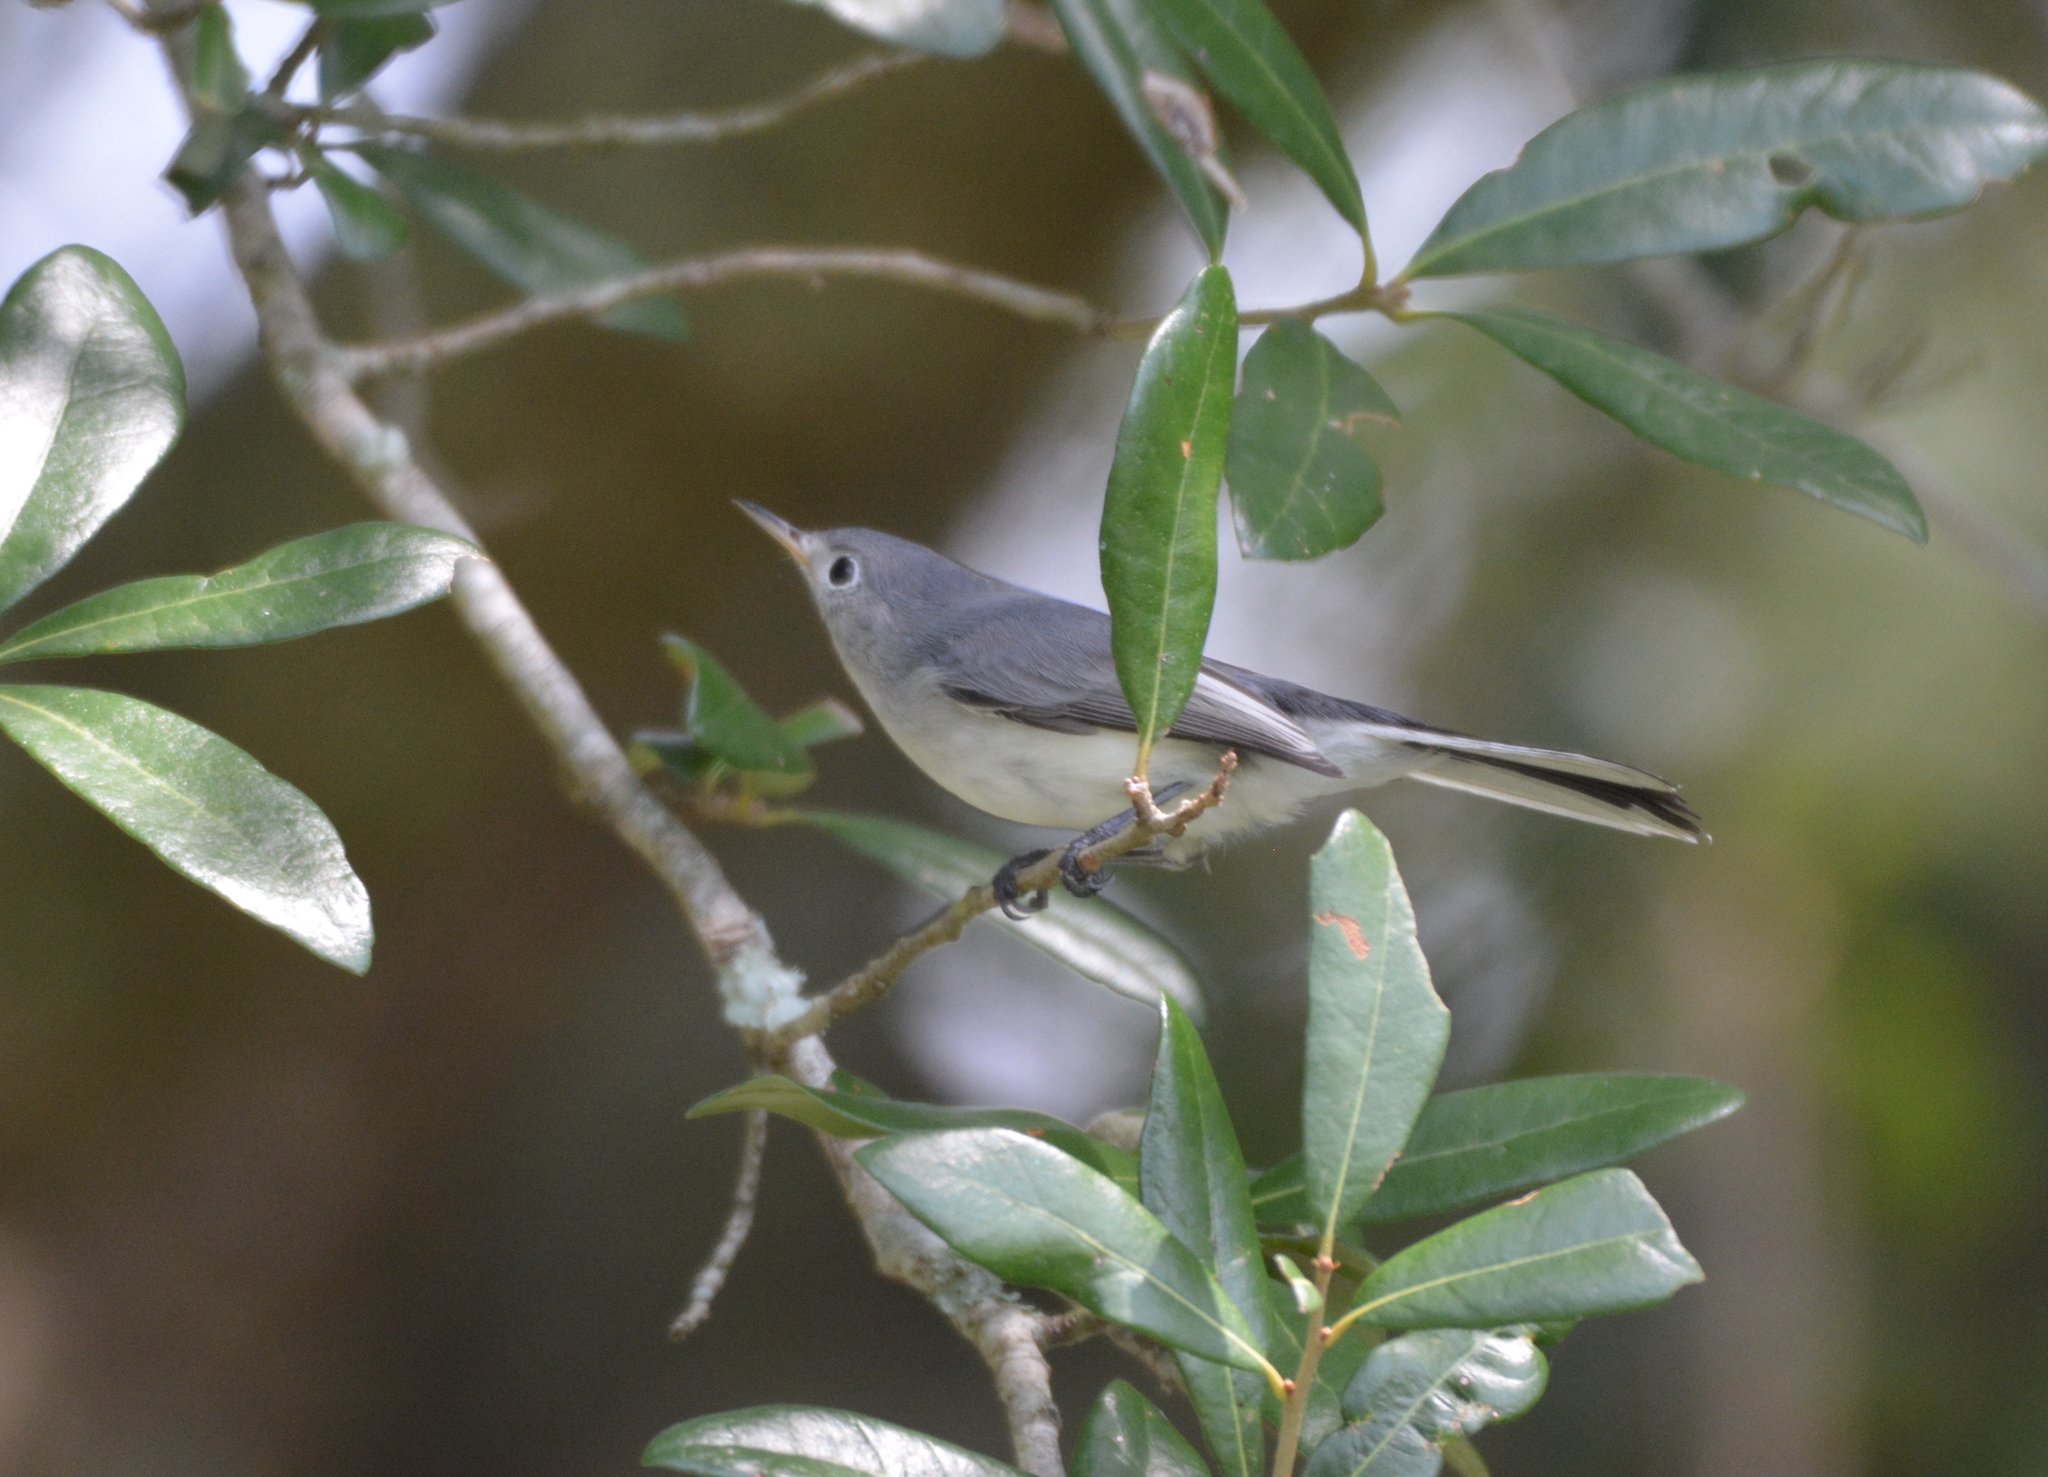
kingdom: Animalia
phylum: Chordata
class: Aves
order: Passeriformes
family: Polioptilidae
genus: Polioptila
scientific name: Polioptila caerulea
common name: Blue-gray gnatcatcher
